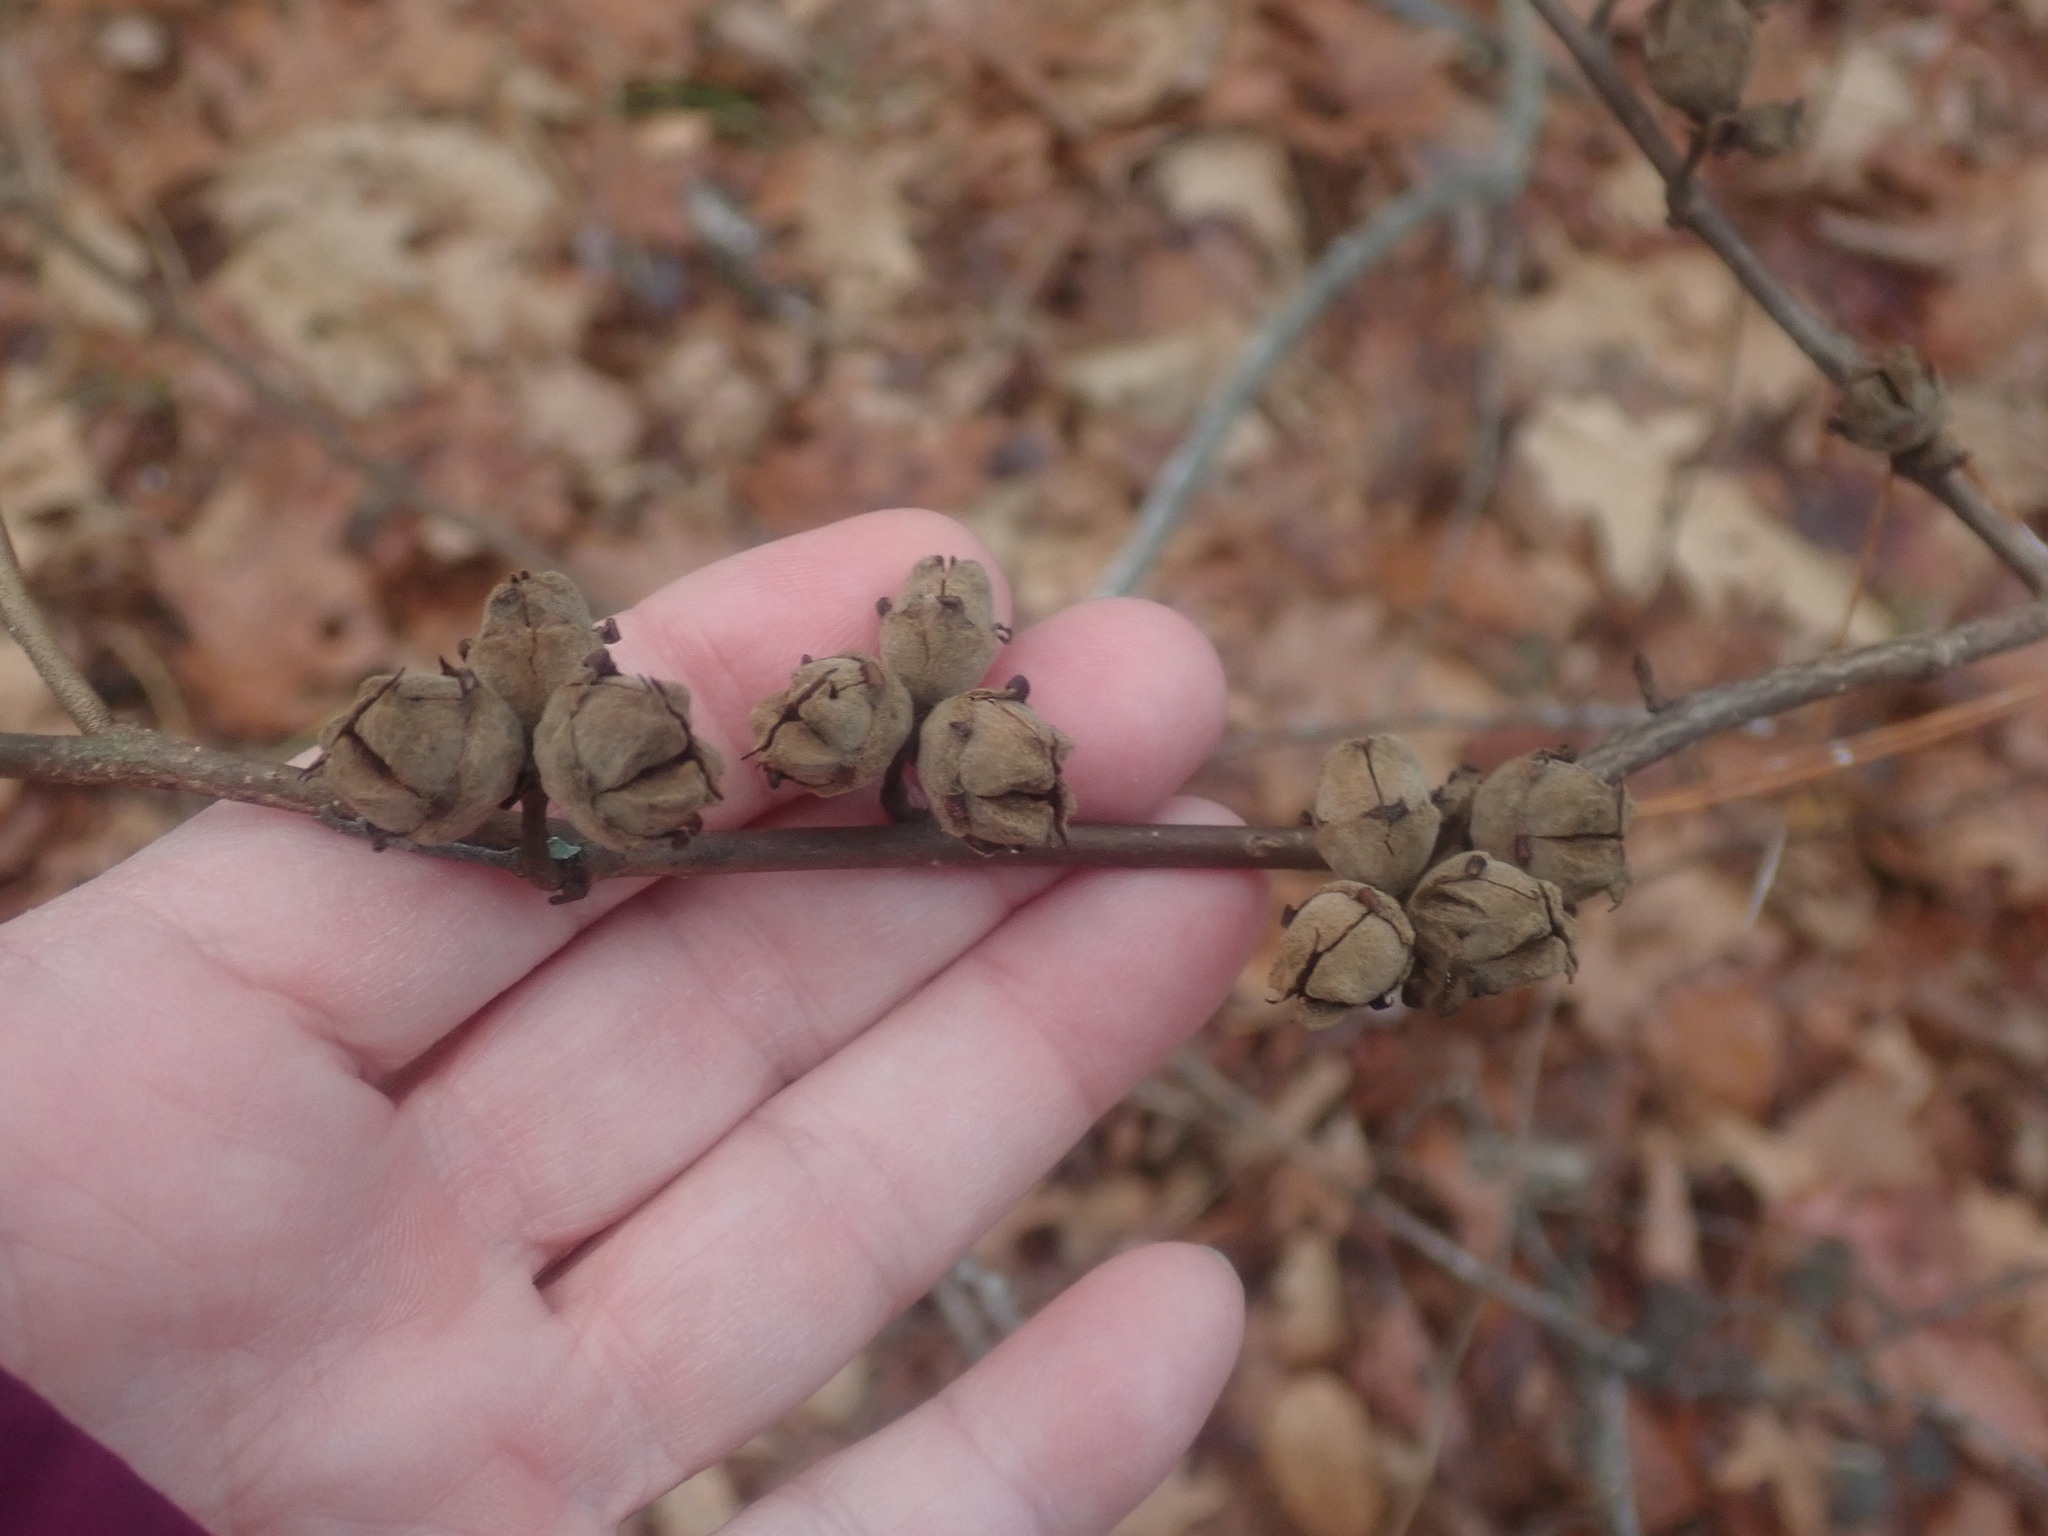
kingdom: Plantae
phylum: Tracheophyta
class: Magnoliopsida
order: Saxifragales
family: Hamamelidaceae
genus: Hamamelis
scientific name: Hamamelis virginiana
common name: Witch-hazel
